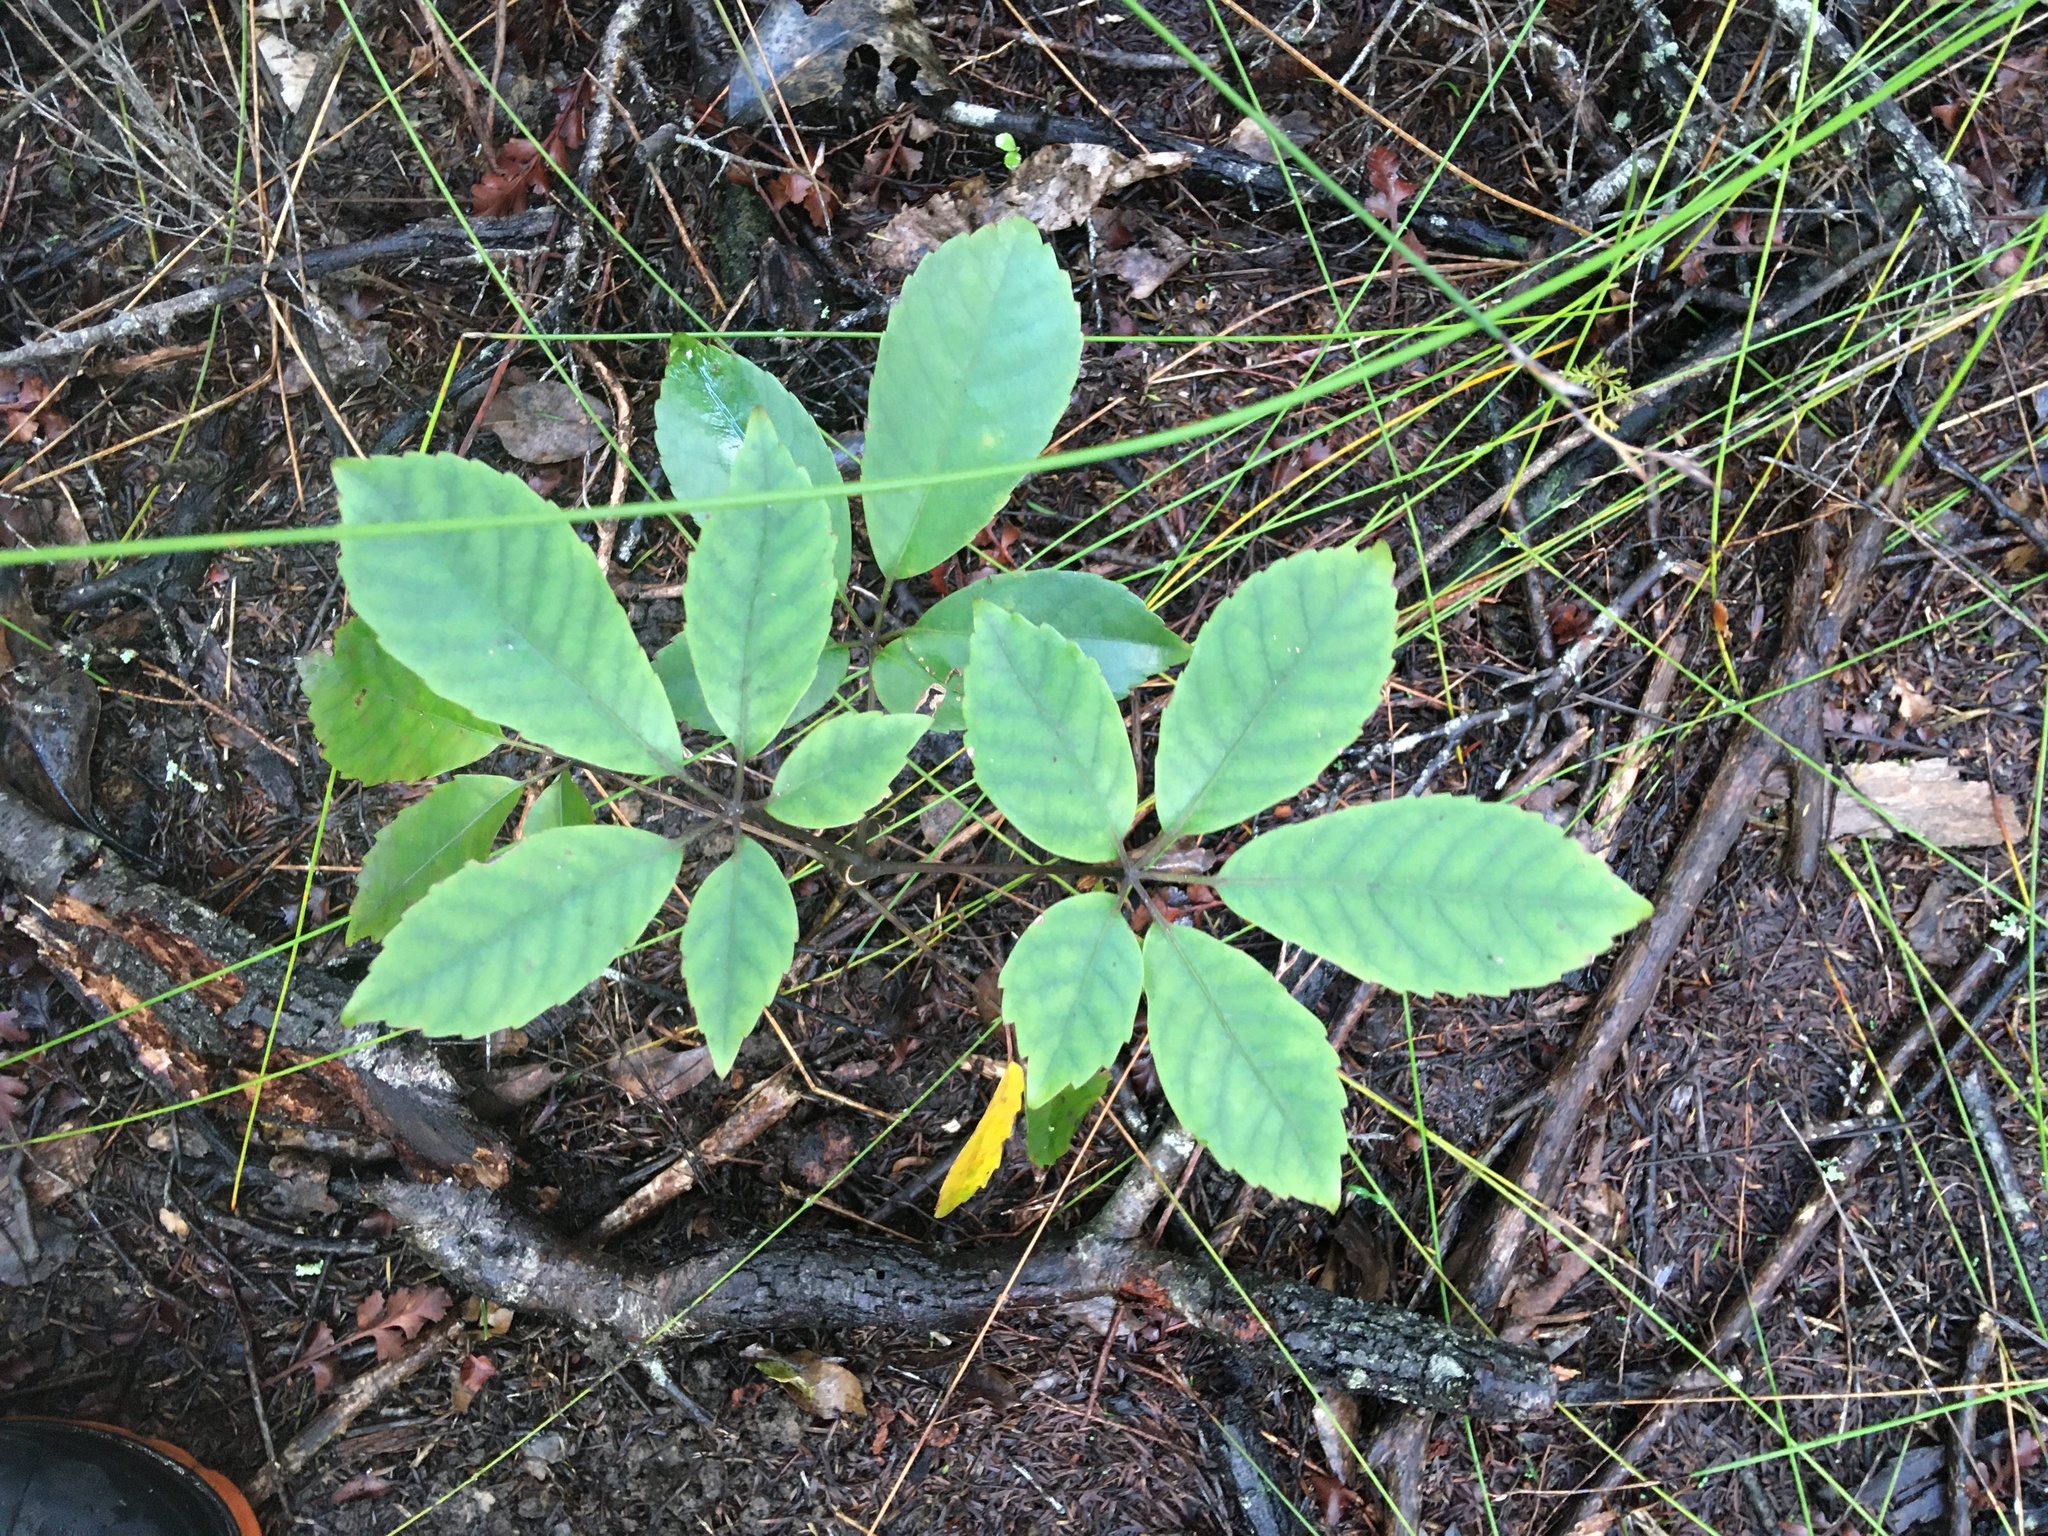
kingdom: Plantae
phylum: Tracheophyta
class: Magnoliopsida
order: Apiales
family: Araliaceae
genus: Neopanax
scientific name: Neopanax arboreus
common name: Five-fingers
